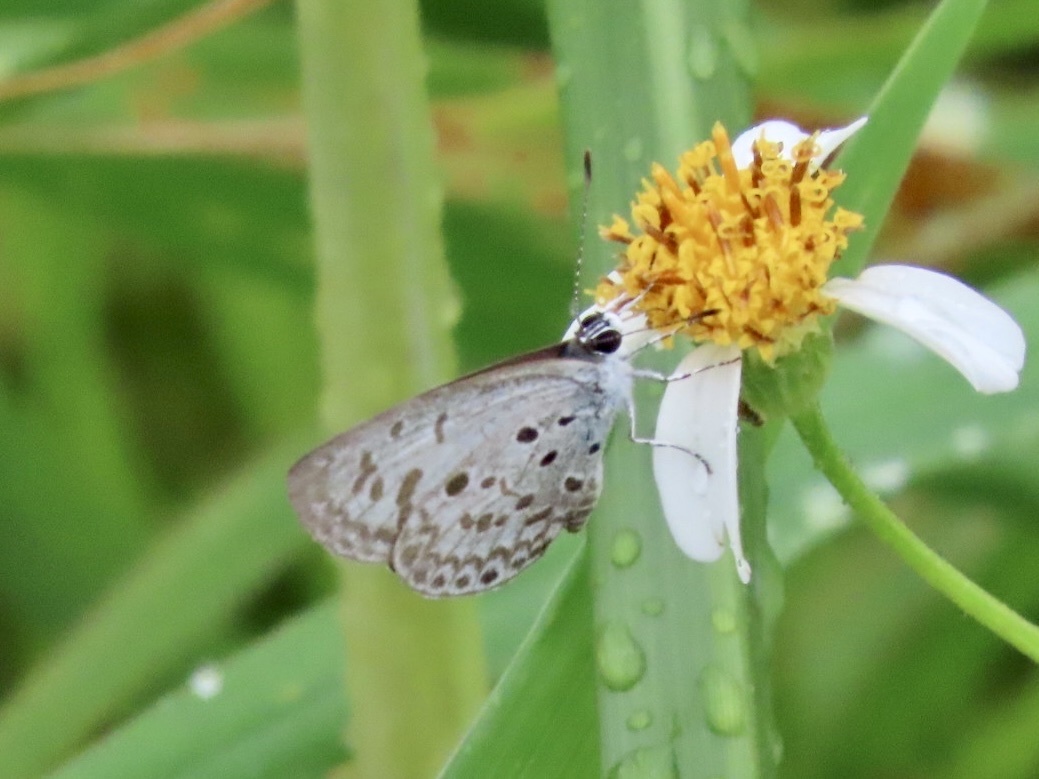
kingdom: Animalia
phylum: Arthropoda
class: Insecta
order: Lepidoptera
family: Lycaenidae
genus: Acytolepis
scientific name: Acytolepis puspa
